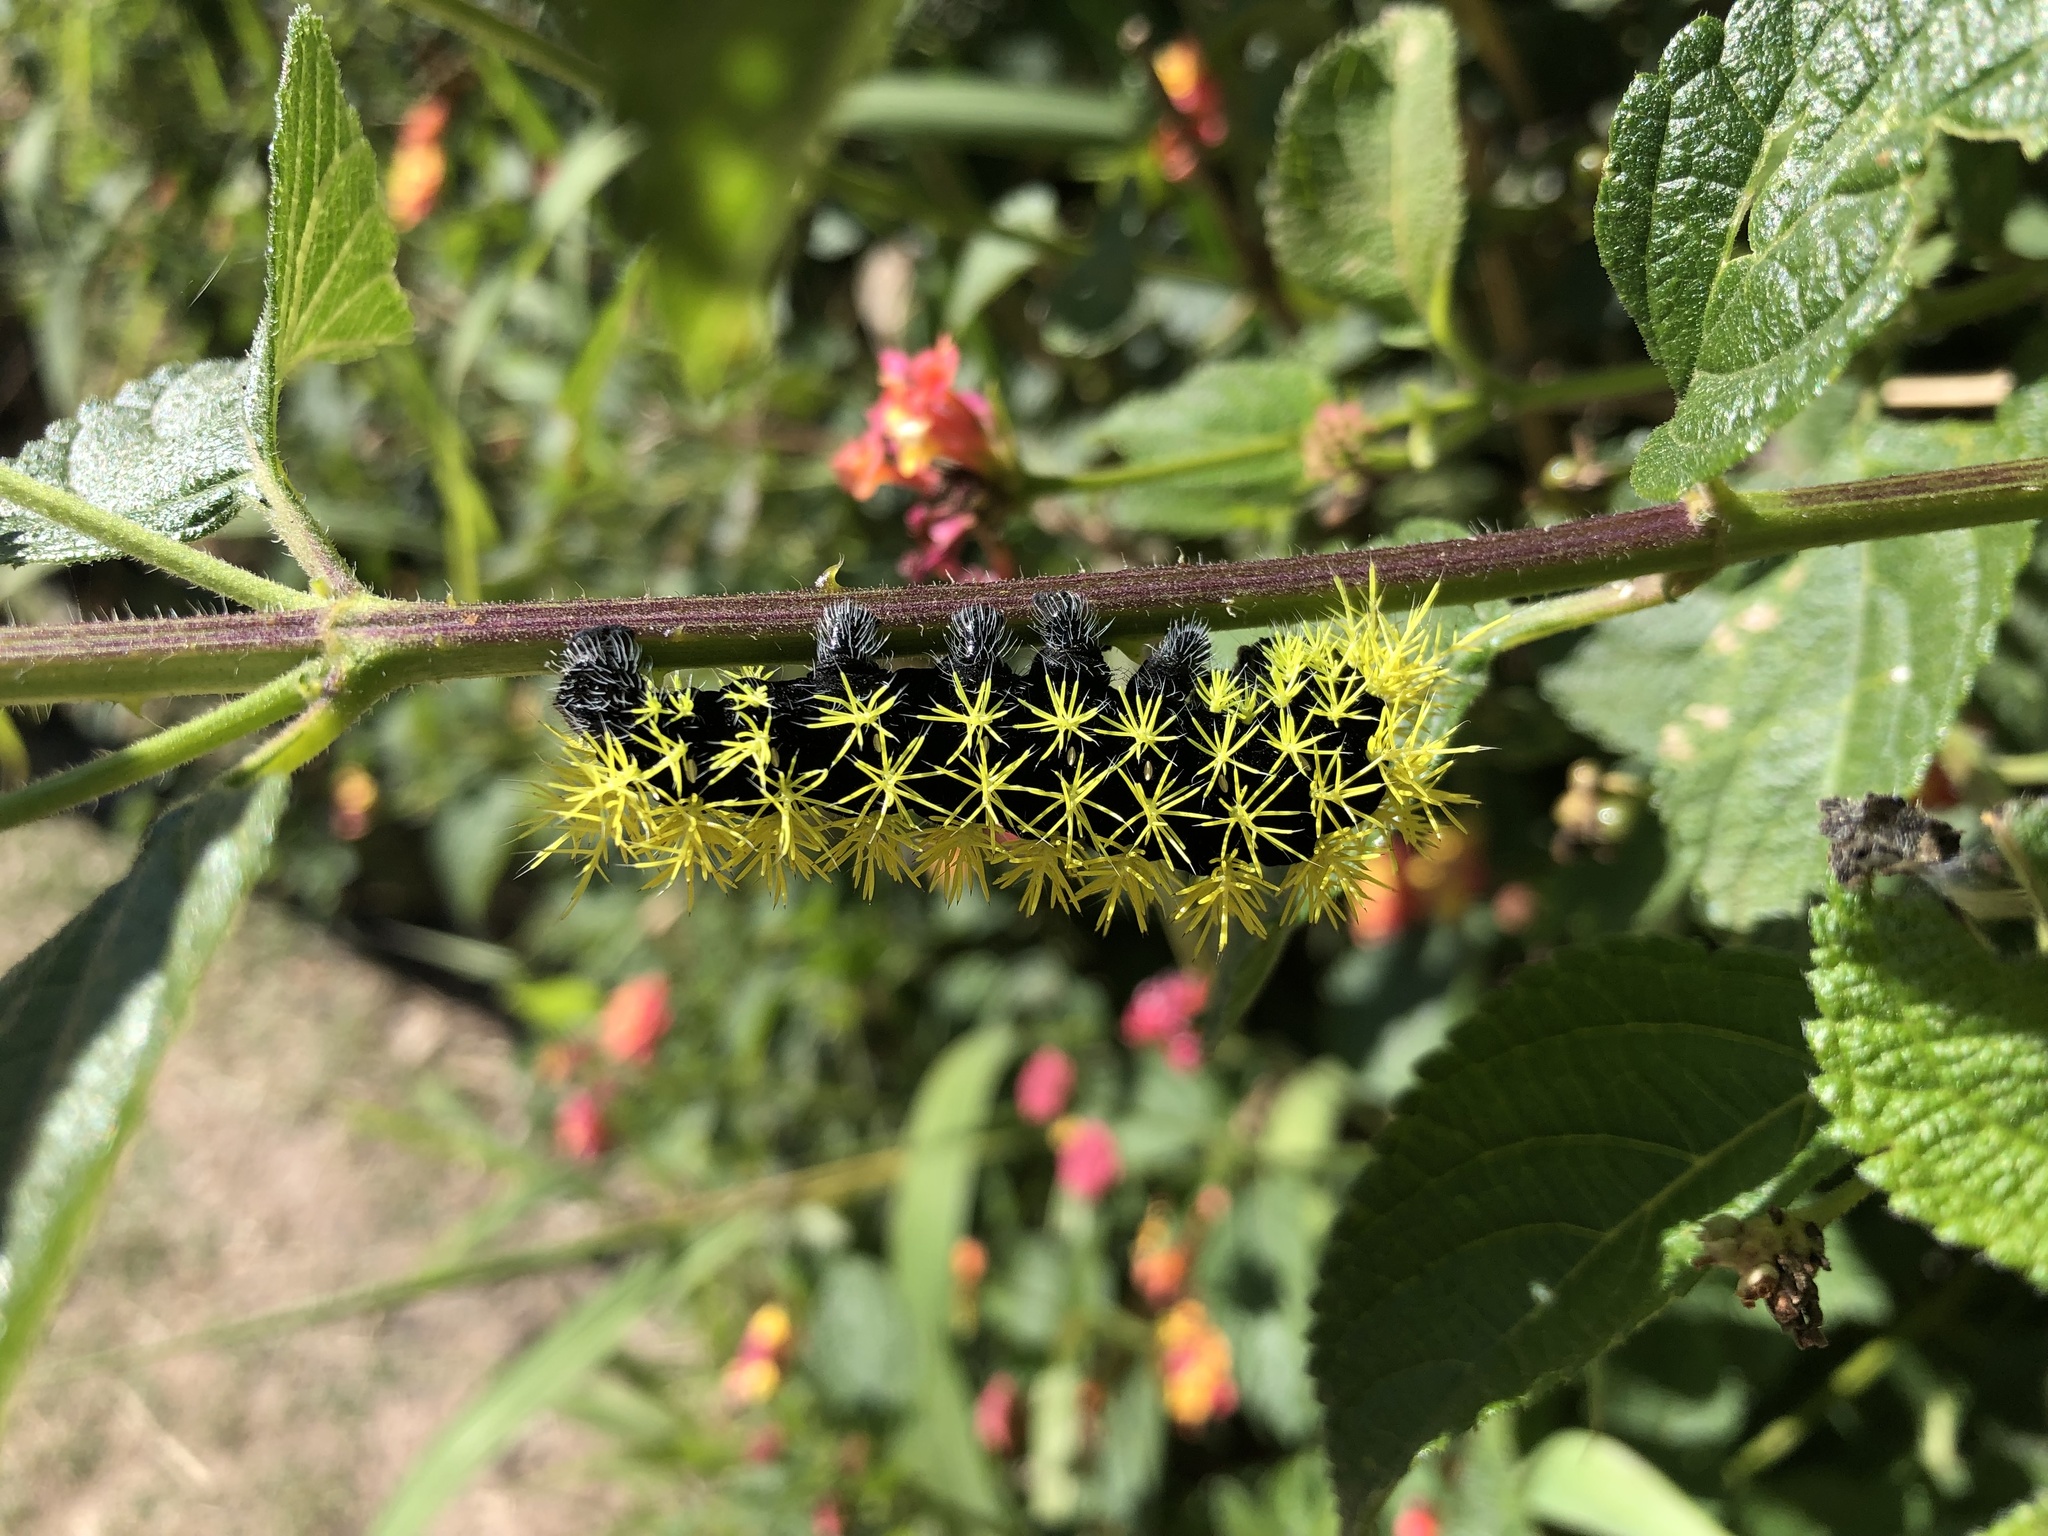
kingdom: Animalia
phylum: Arthropoda
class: Insecta
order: Lepidoptera
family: Saturniidae
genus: Leucanella
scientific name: Leucanella viridescens
